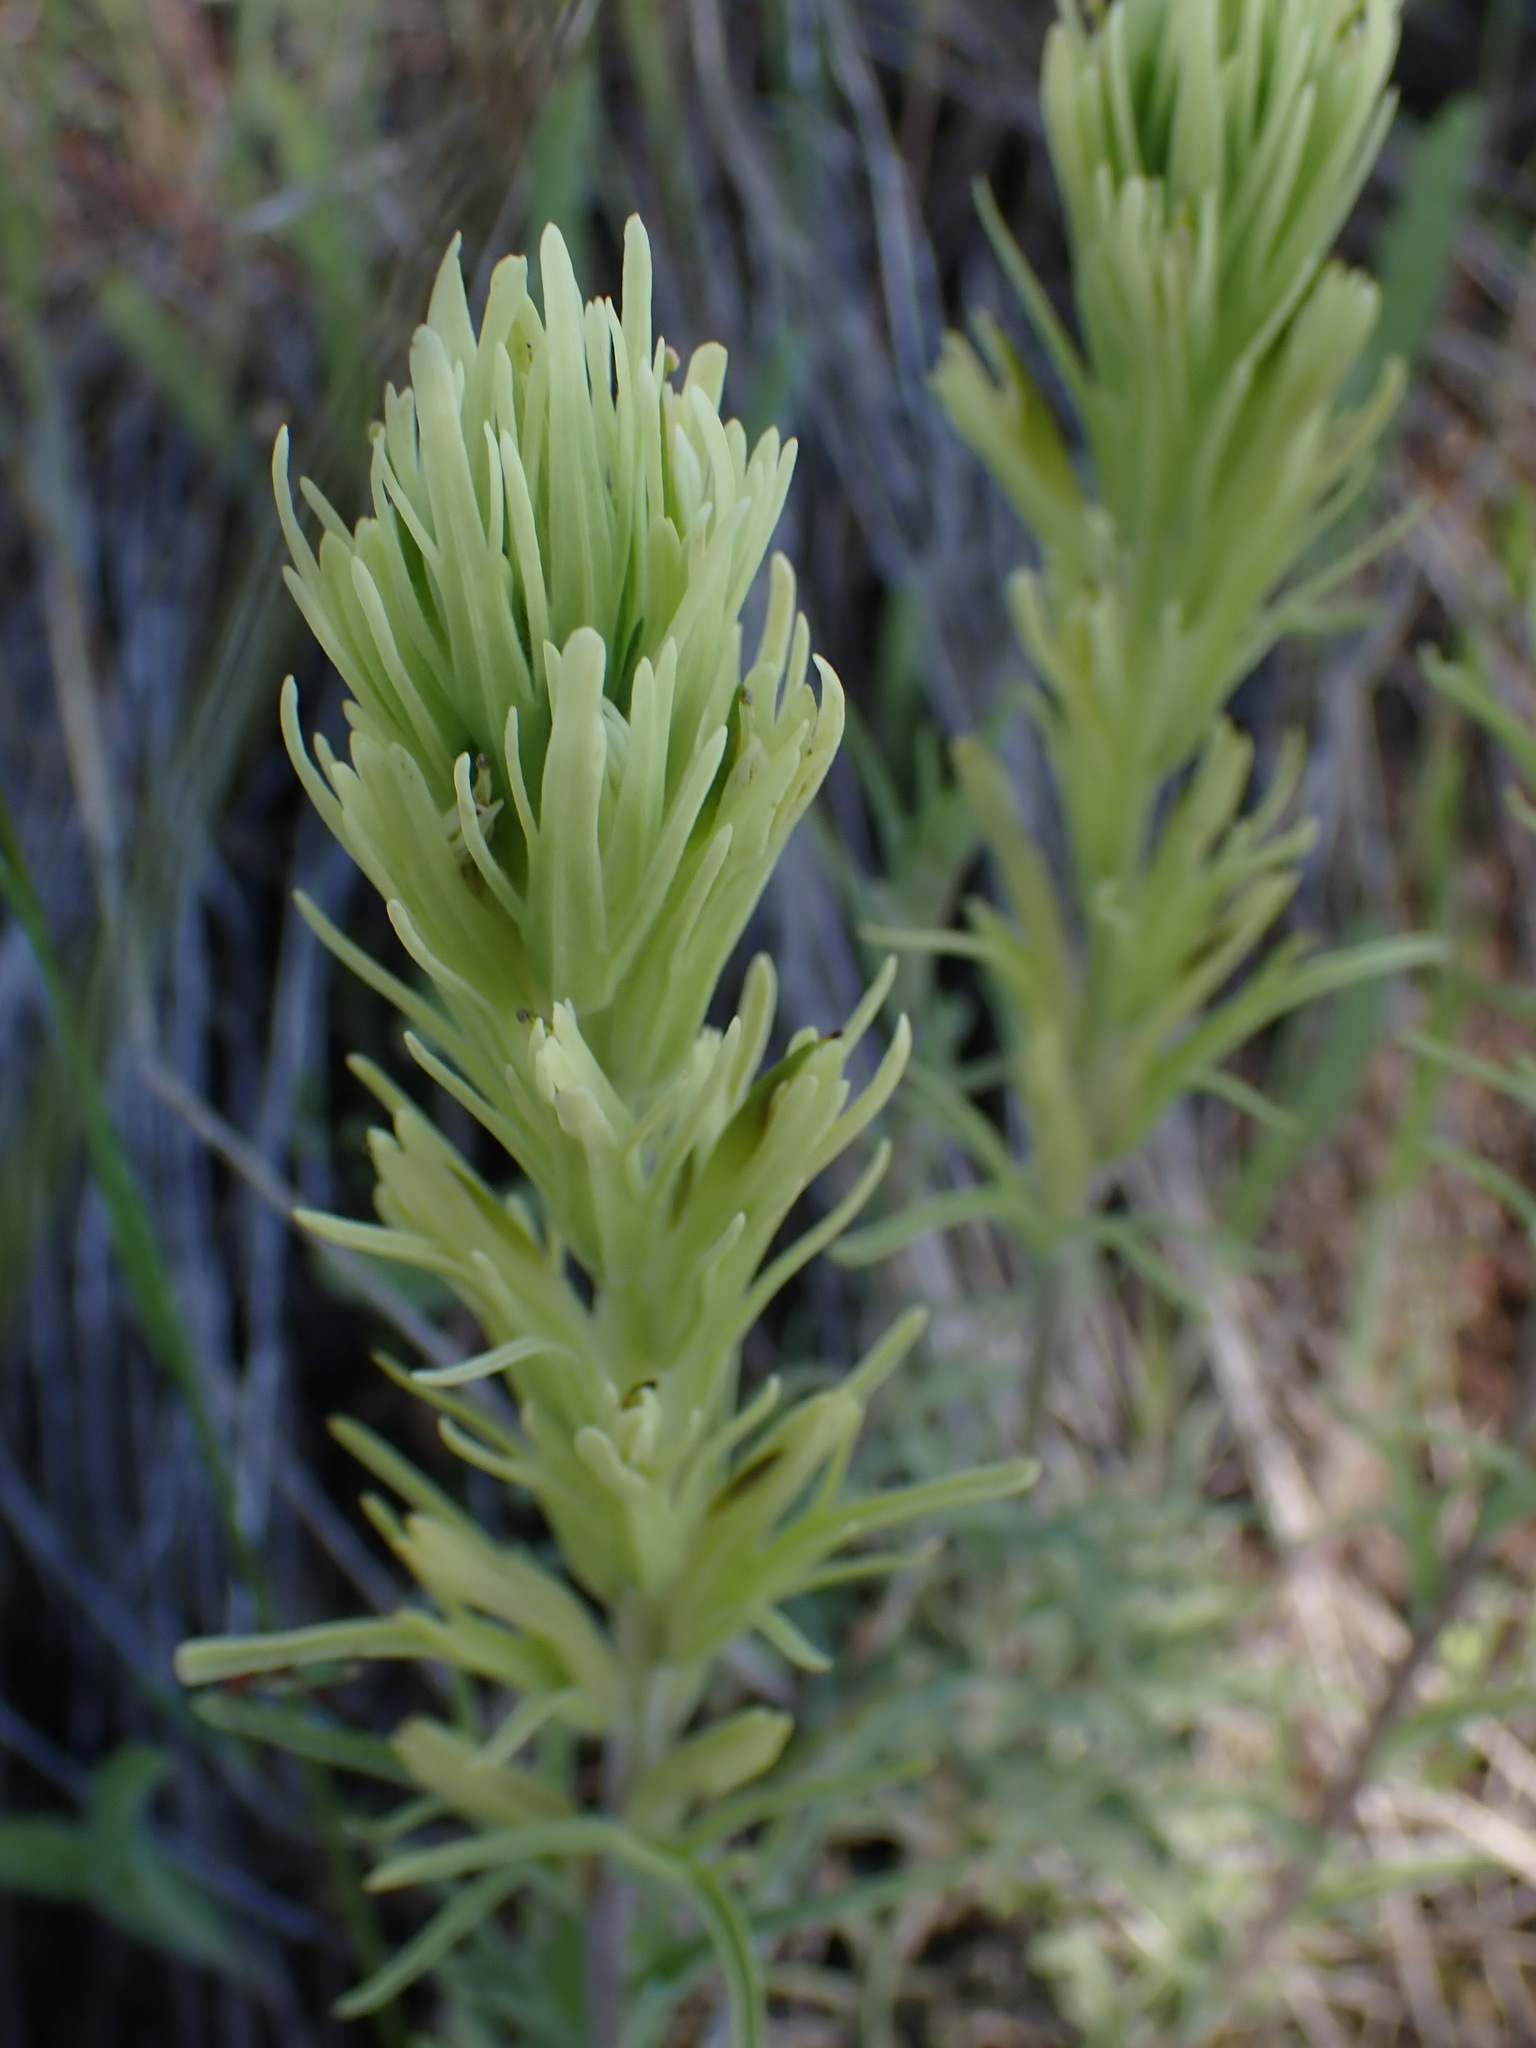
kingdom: Plantae
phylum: Tracheophyta
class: Magnoliopsida
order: Lamiales
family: Orobanchaceae
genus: Castilleja
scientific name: Castilleja thompsonii
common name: Thompson's paintbrush
